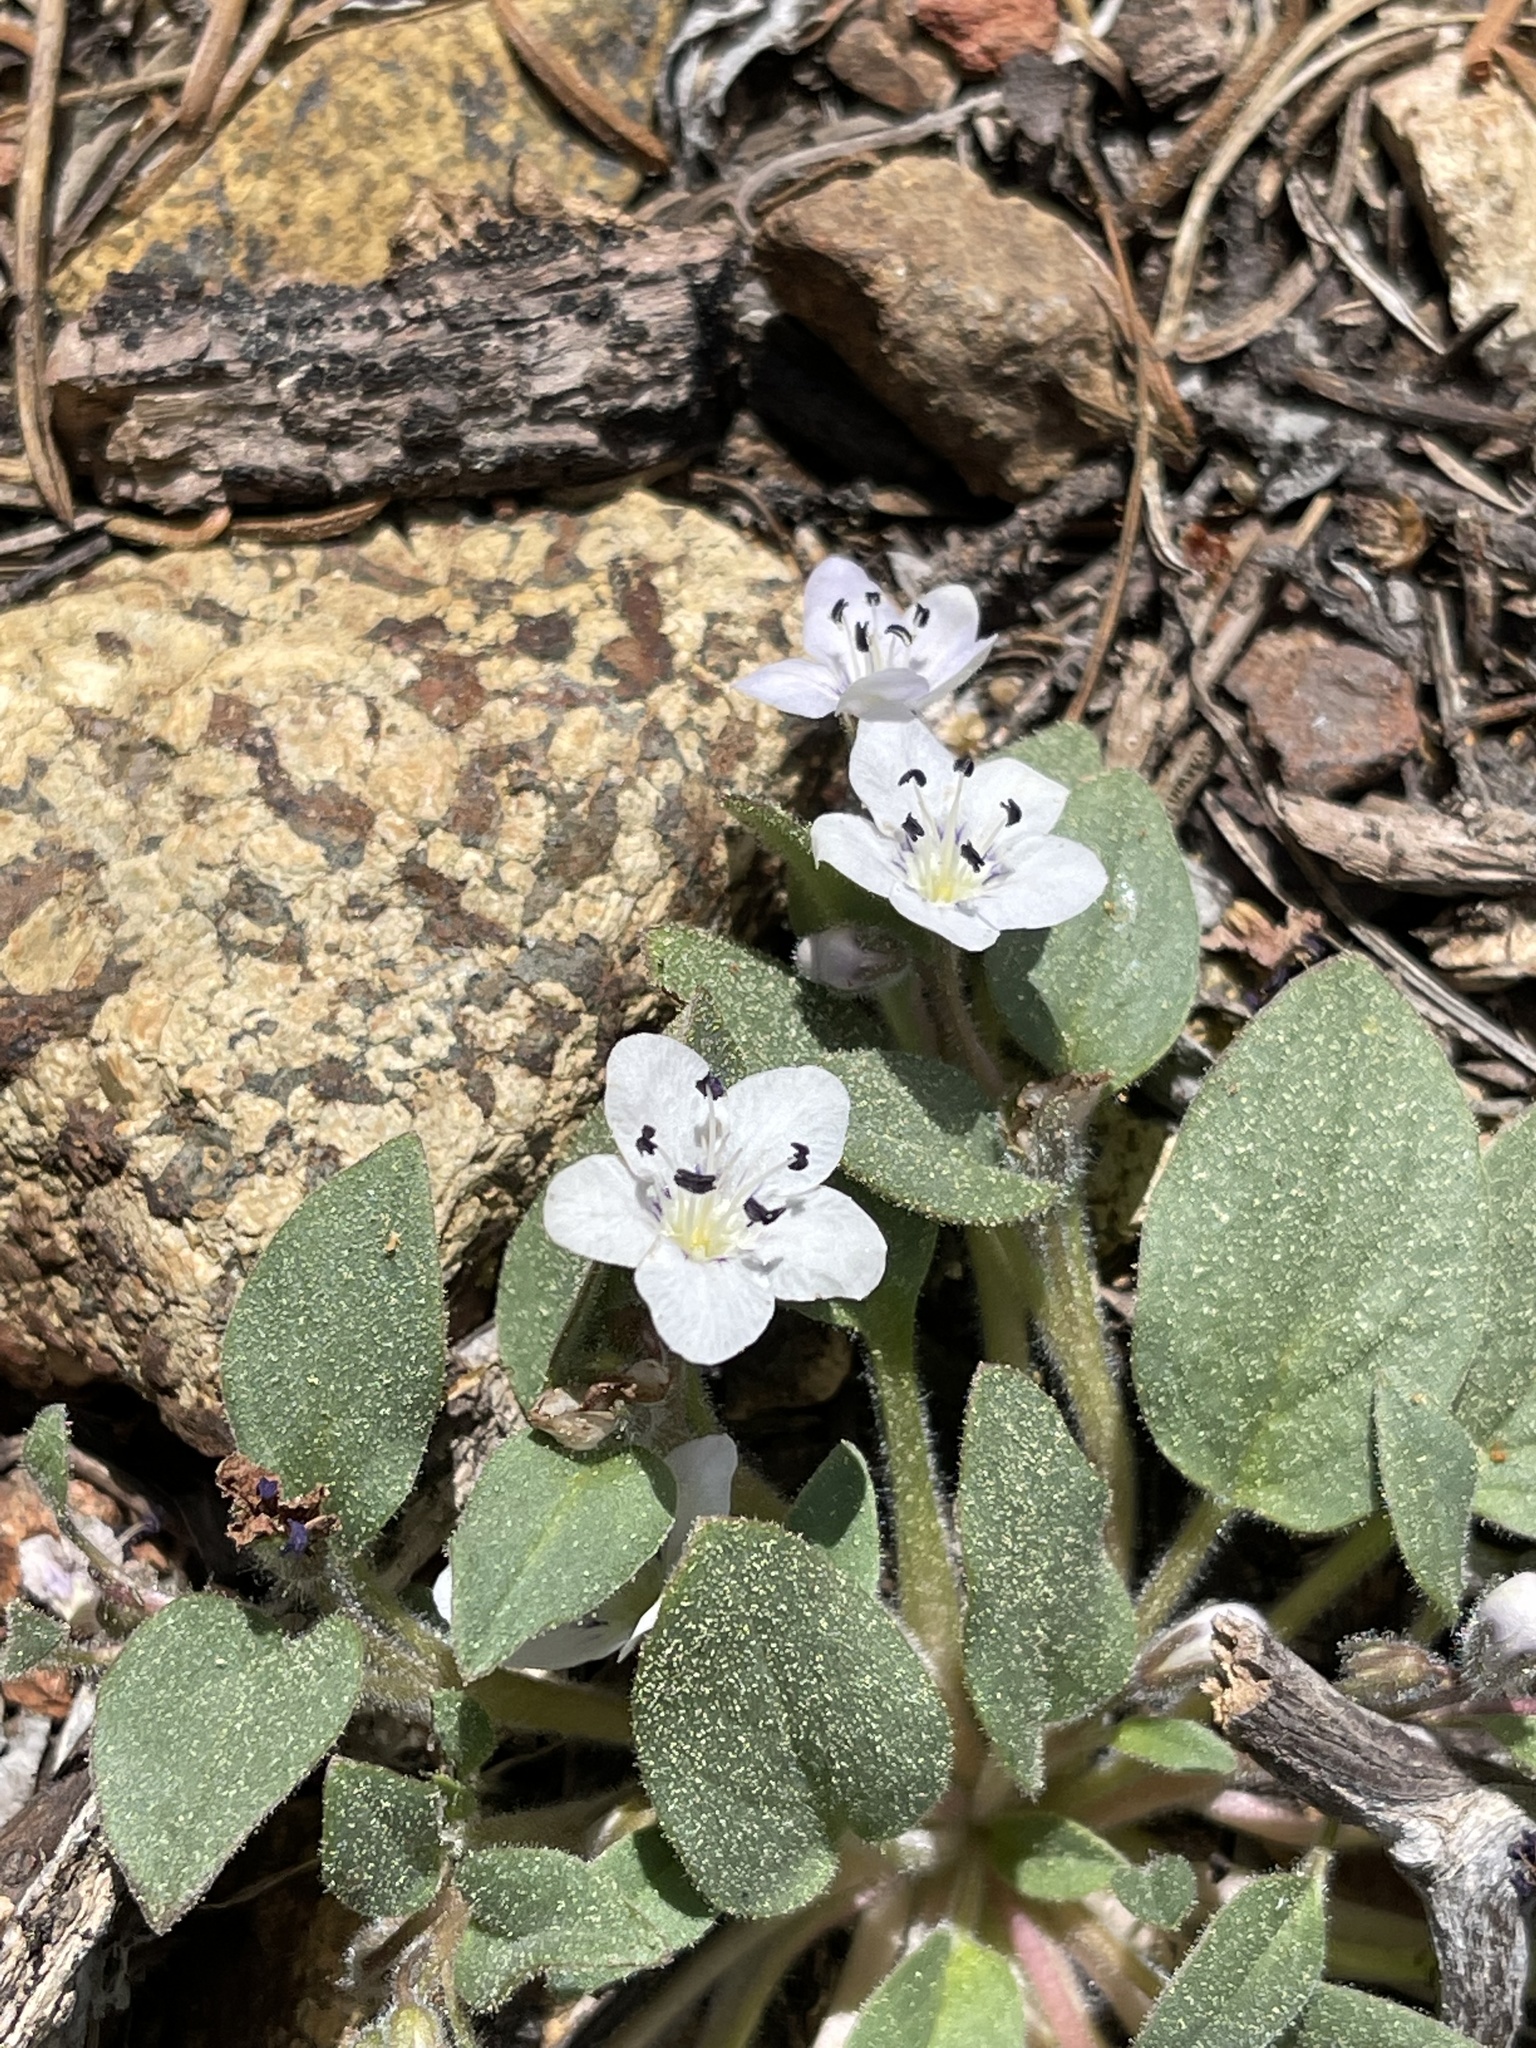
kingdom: Plantae
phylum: Tracheophyta
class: Magnoliopsida
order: Boraginales
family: Hydrophyllaceae
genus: Howellanthus
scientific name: Howellanthus dalesianus
